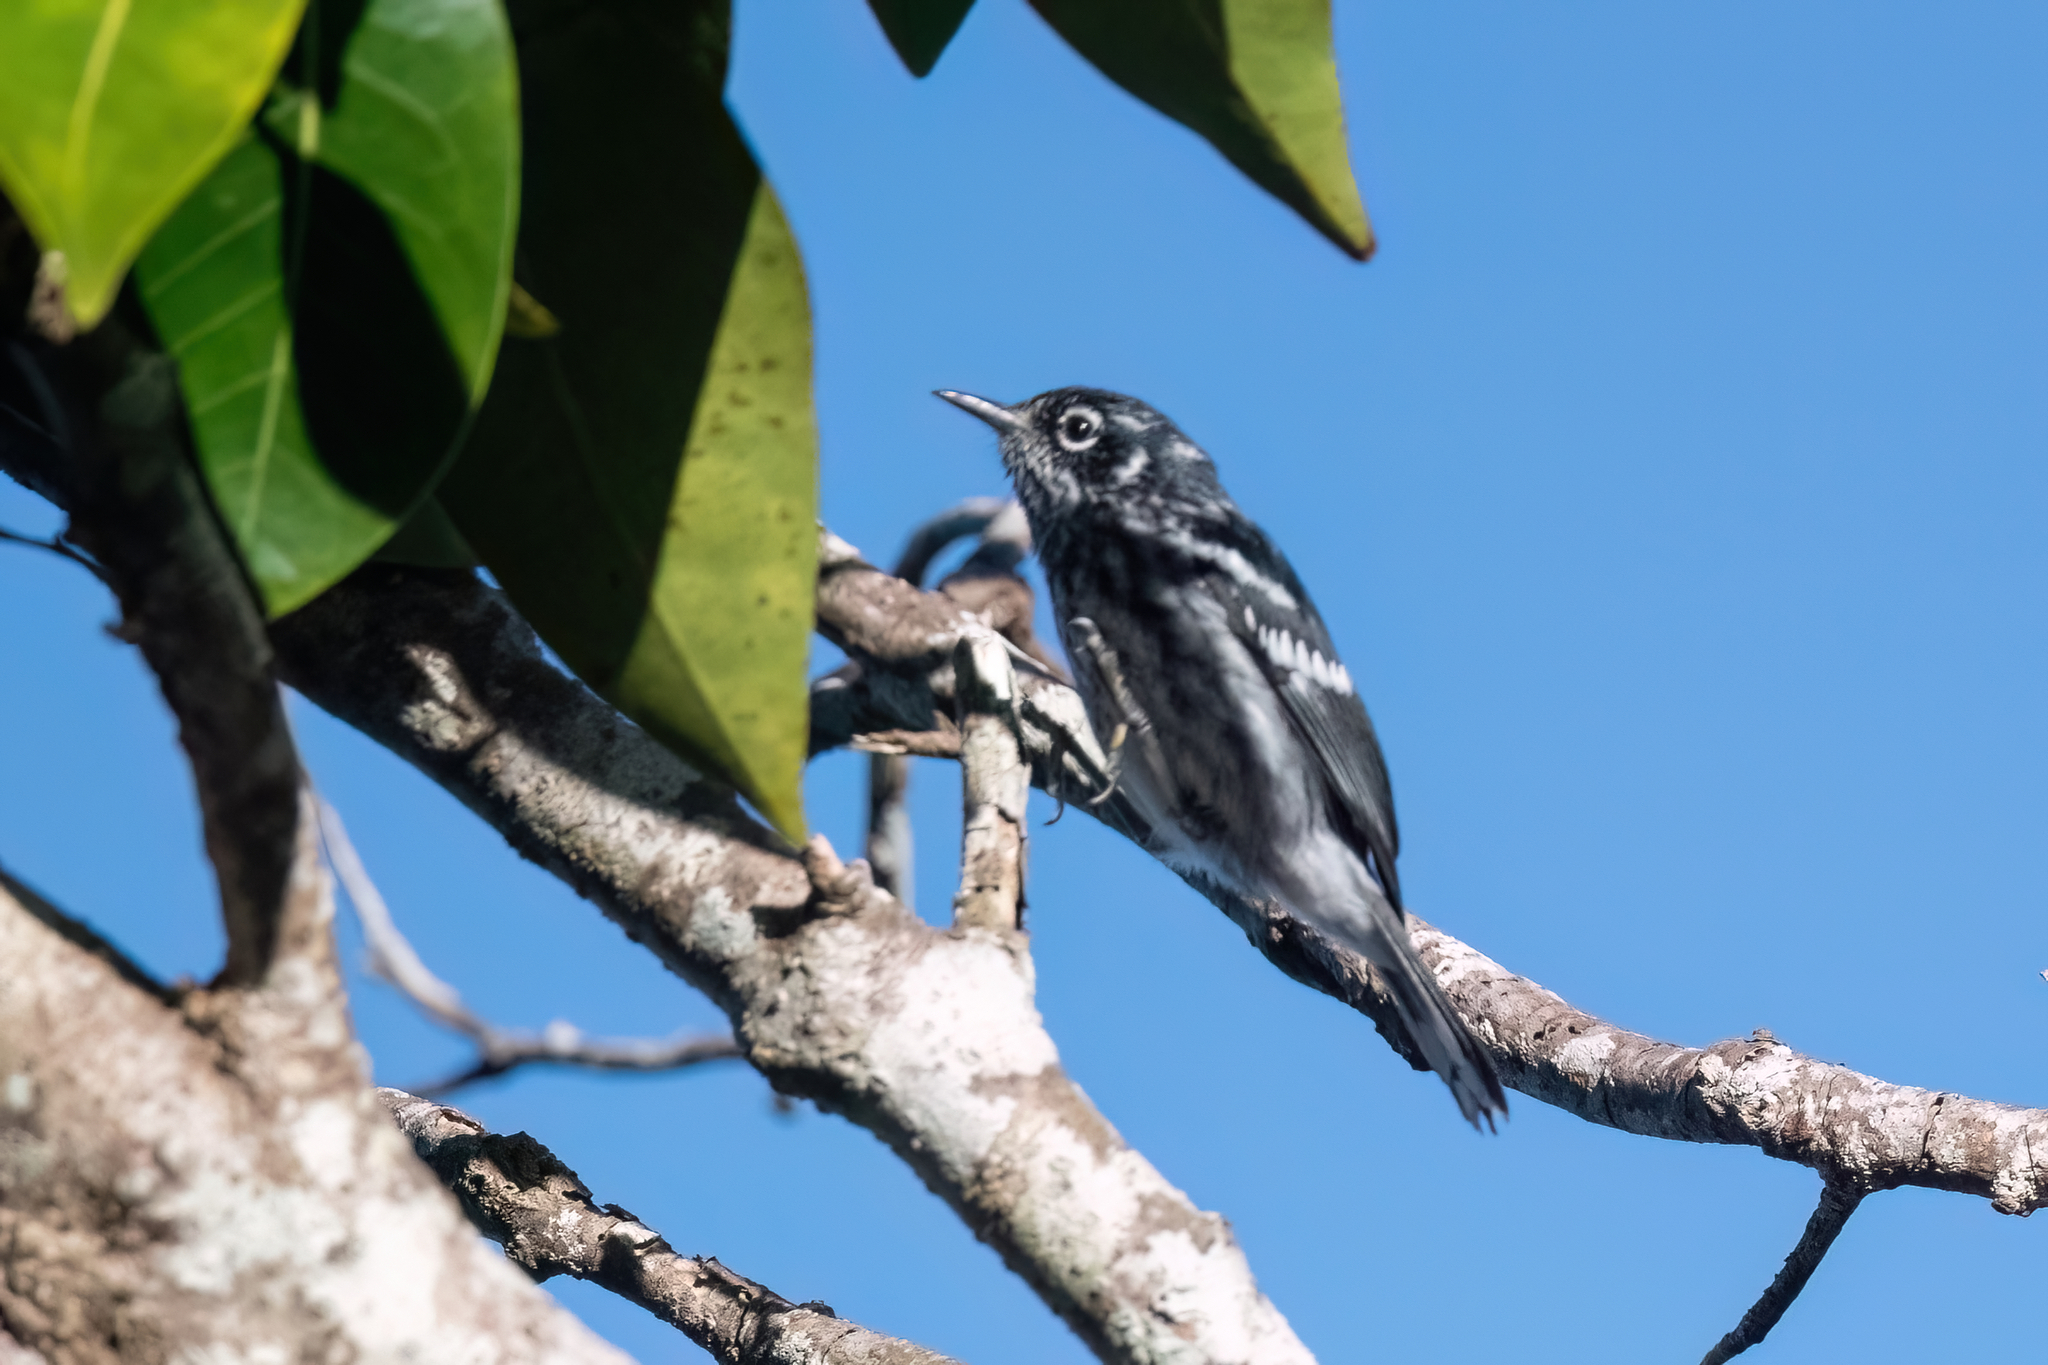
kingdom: Animalia
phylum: Chordata
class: Aves
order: Passeriformes
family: Parulidae
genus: Setophaga
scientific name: Setophaga angelae
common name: Elfin woods warbler
